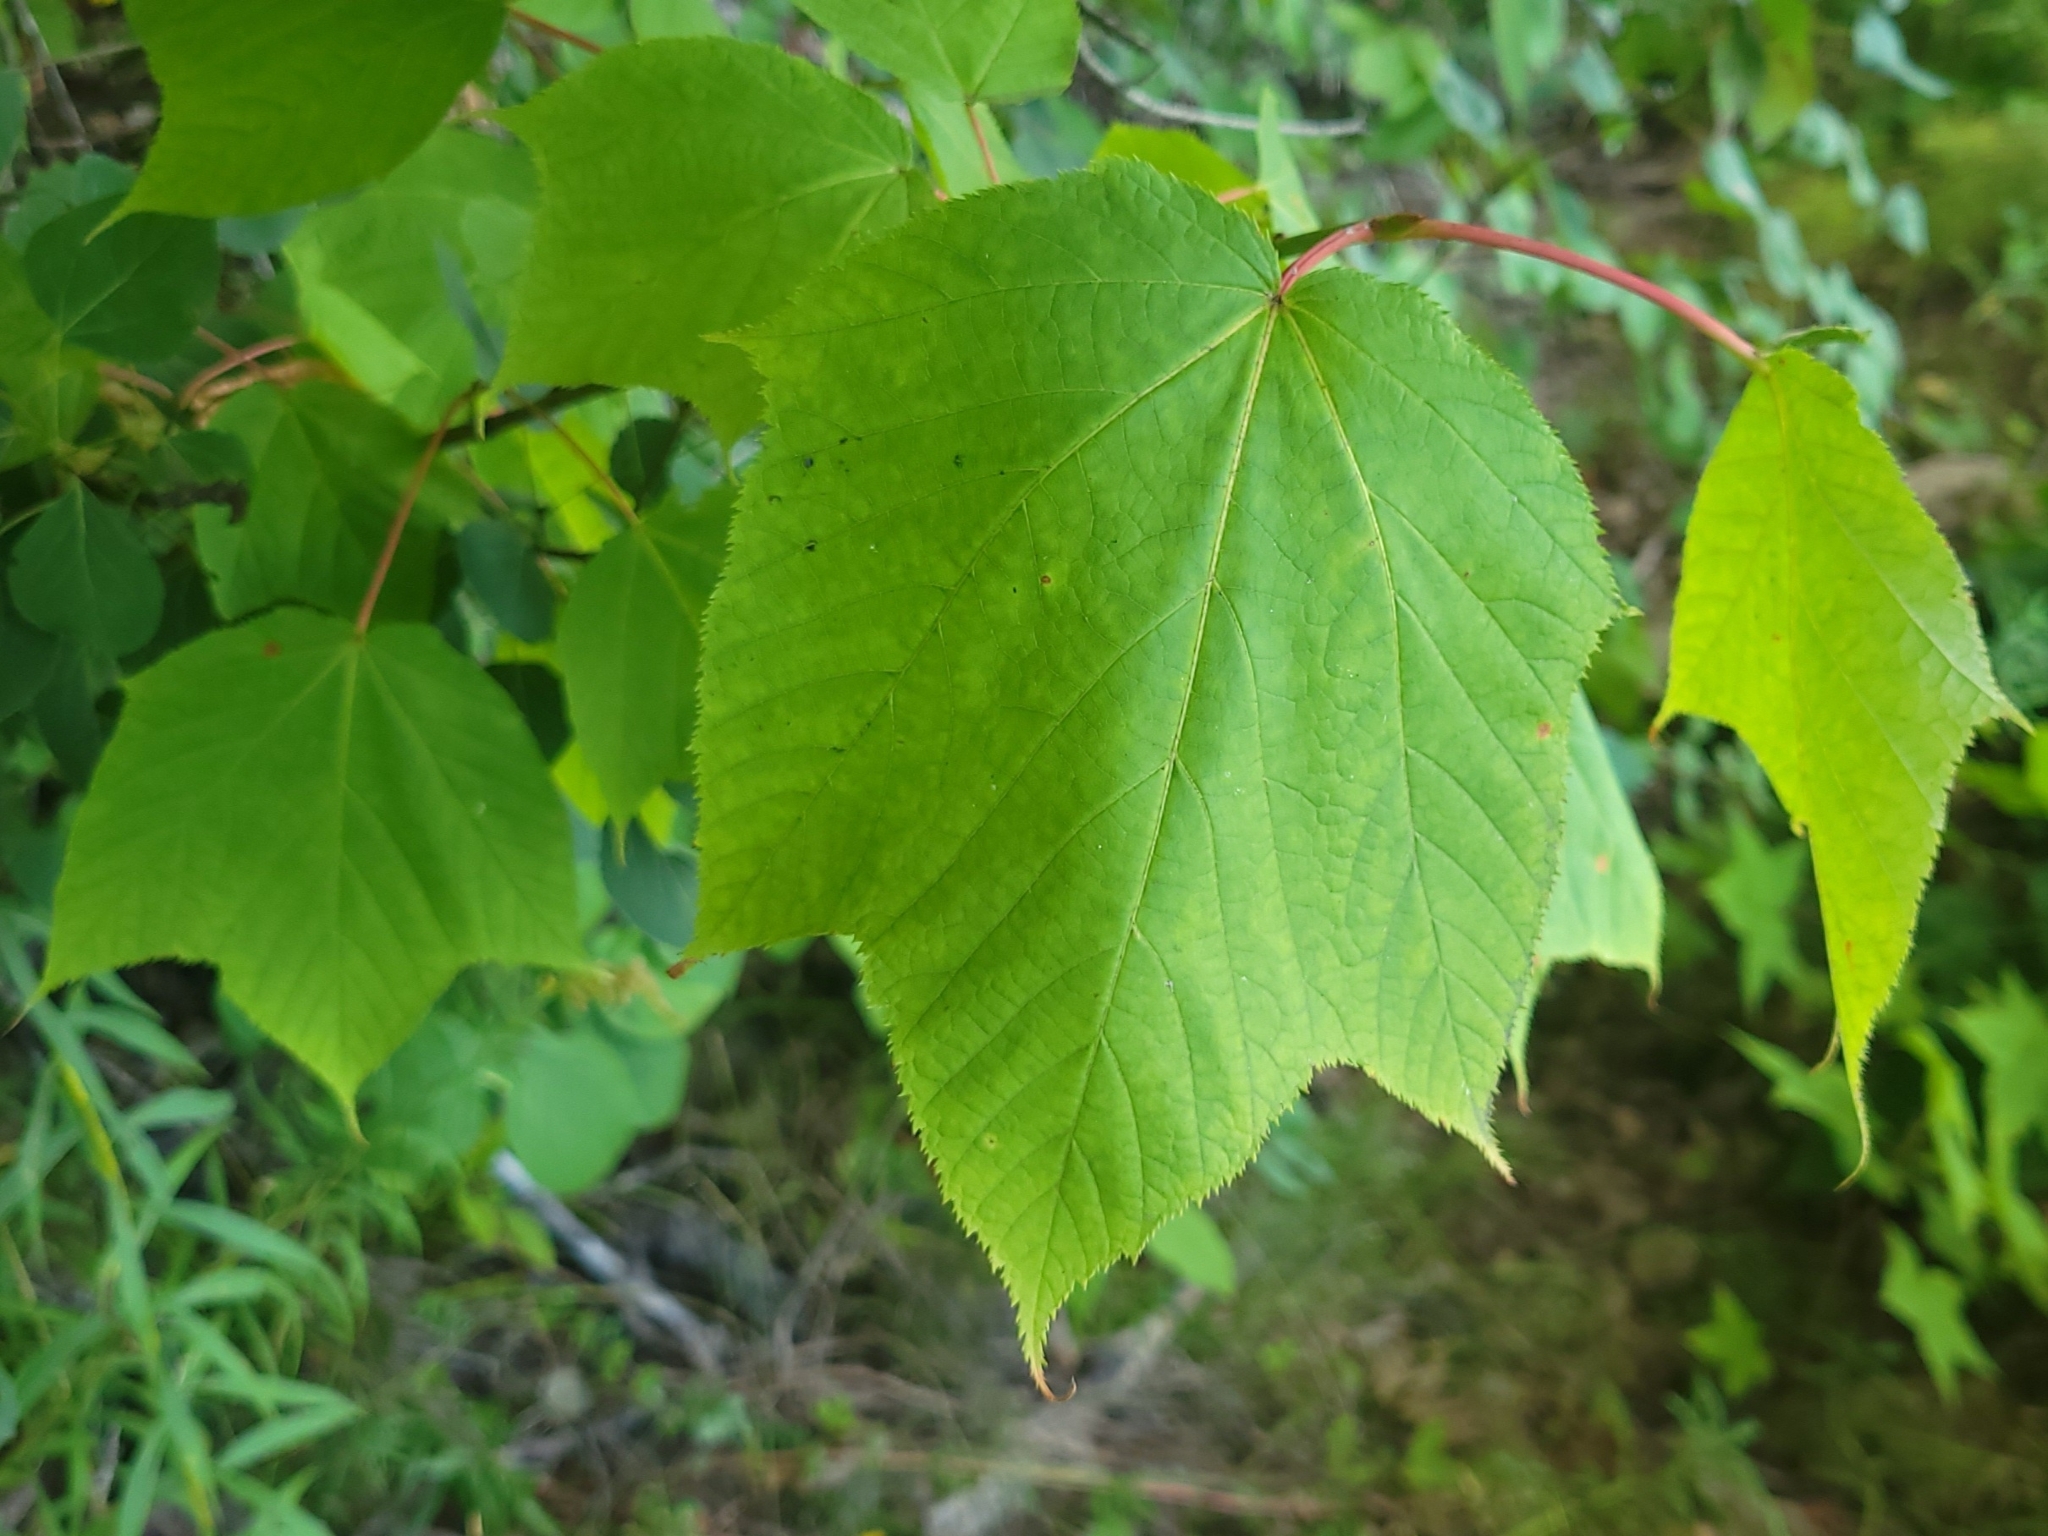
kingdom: Plantae
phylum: Tracheophyta
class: Magnoliopsida
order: Sapindales
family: Sapindaceae
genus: Acer
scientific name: Acer pensylvanicum
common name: Moosewood
